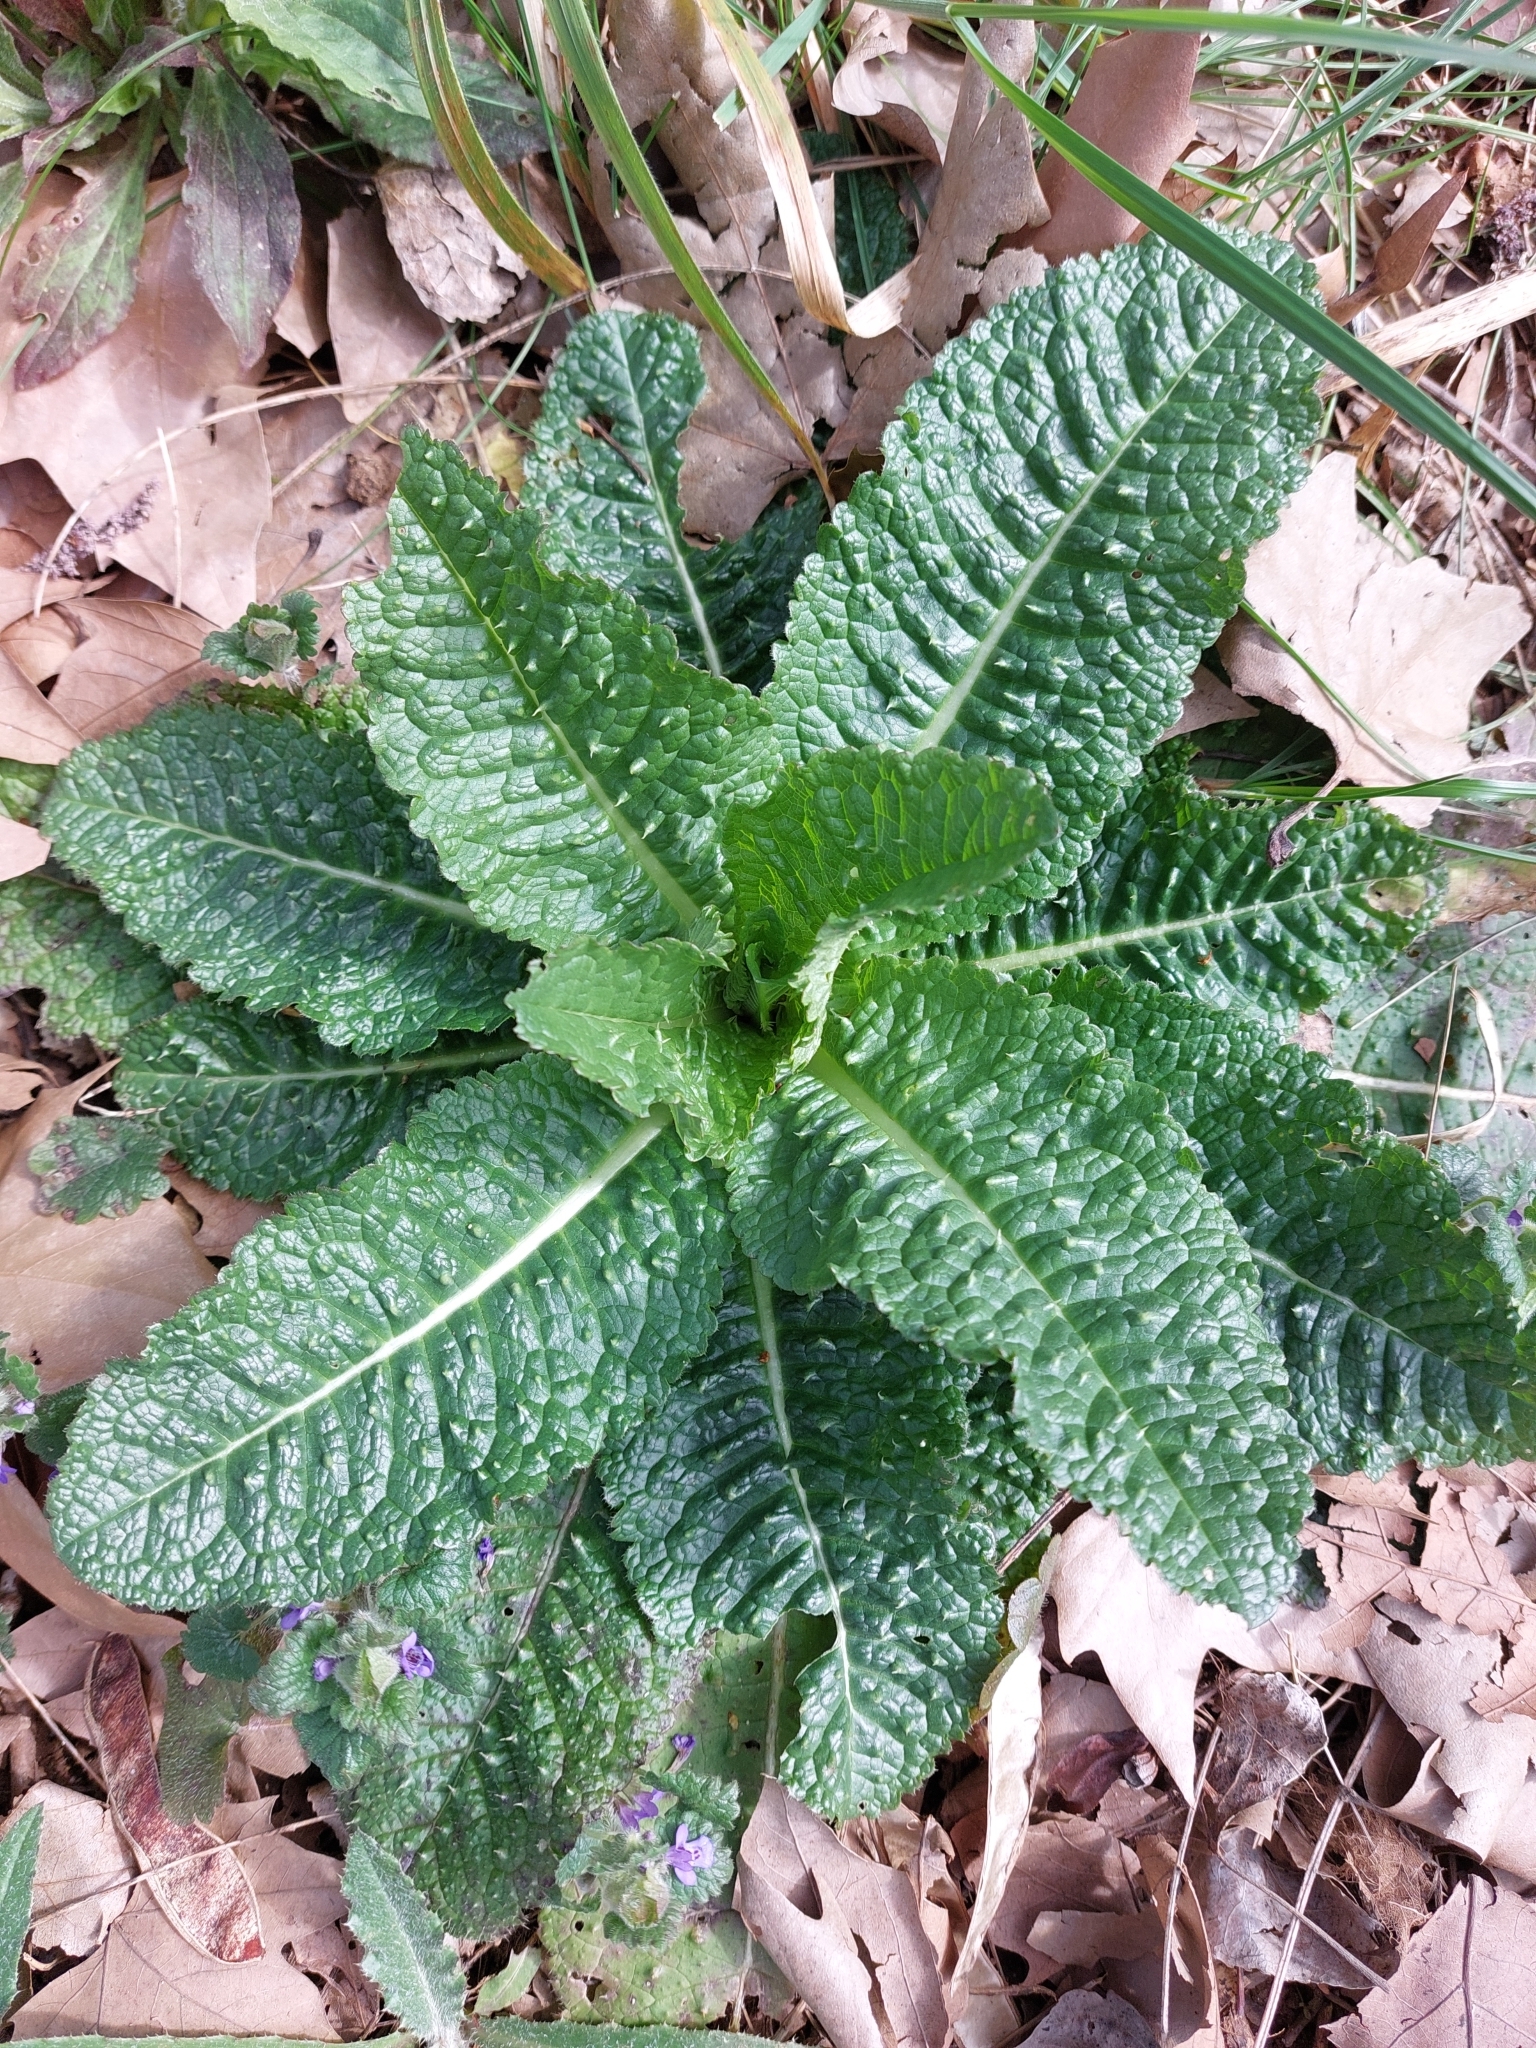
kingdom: Plantae
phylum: Tracheophyta
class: Magnoliopsida
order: Dipsacales
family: Caprifoliaceae
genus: Dipsacus
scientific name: Dipsacus fullonum
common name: Teasel
